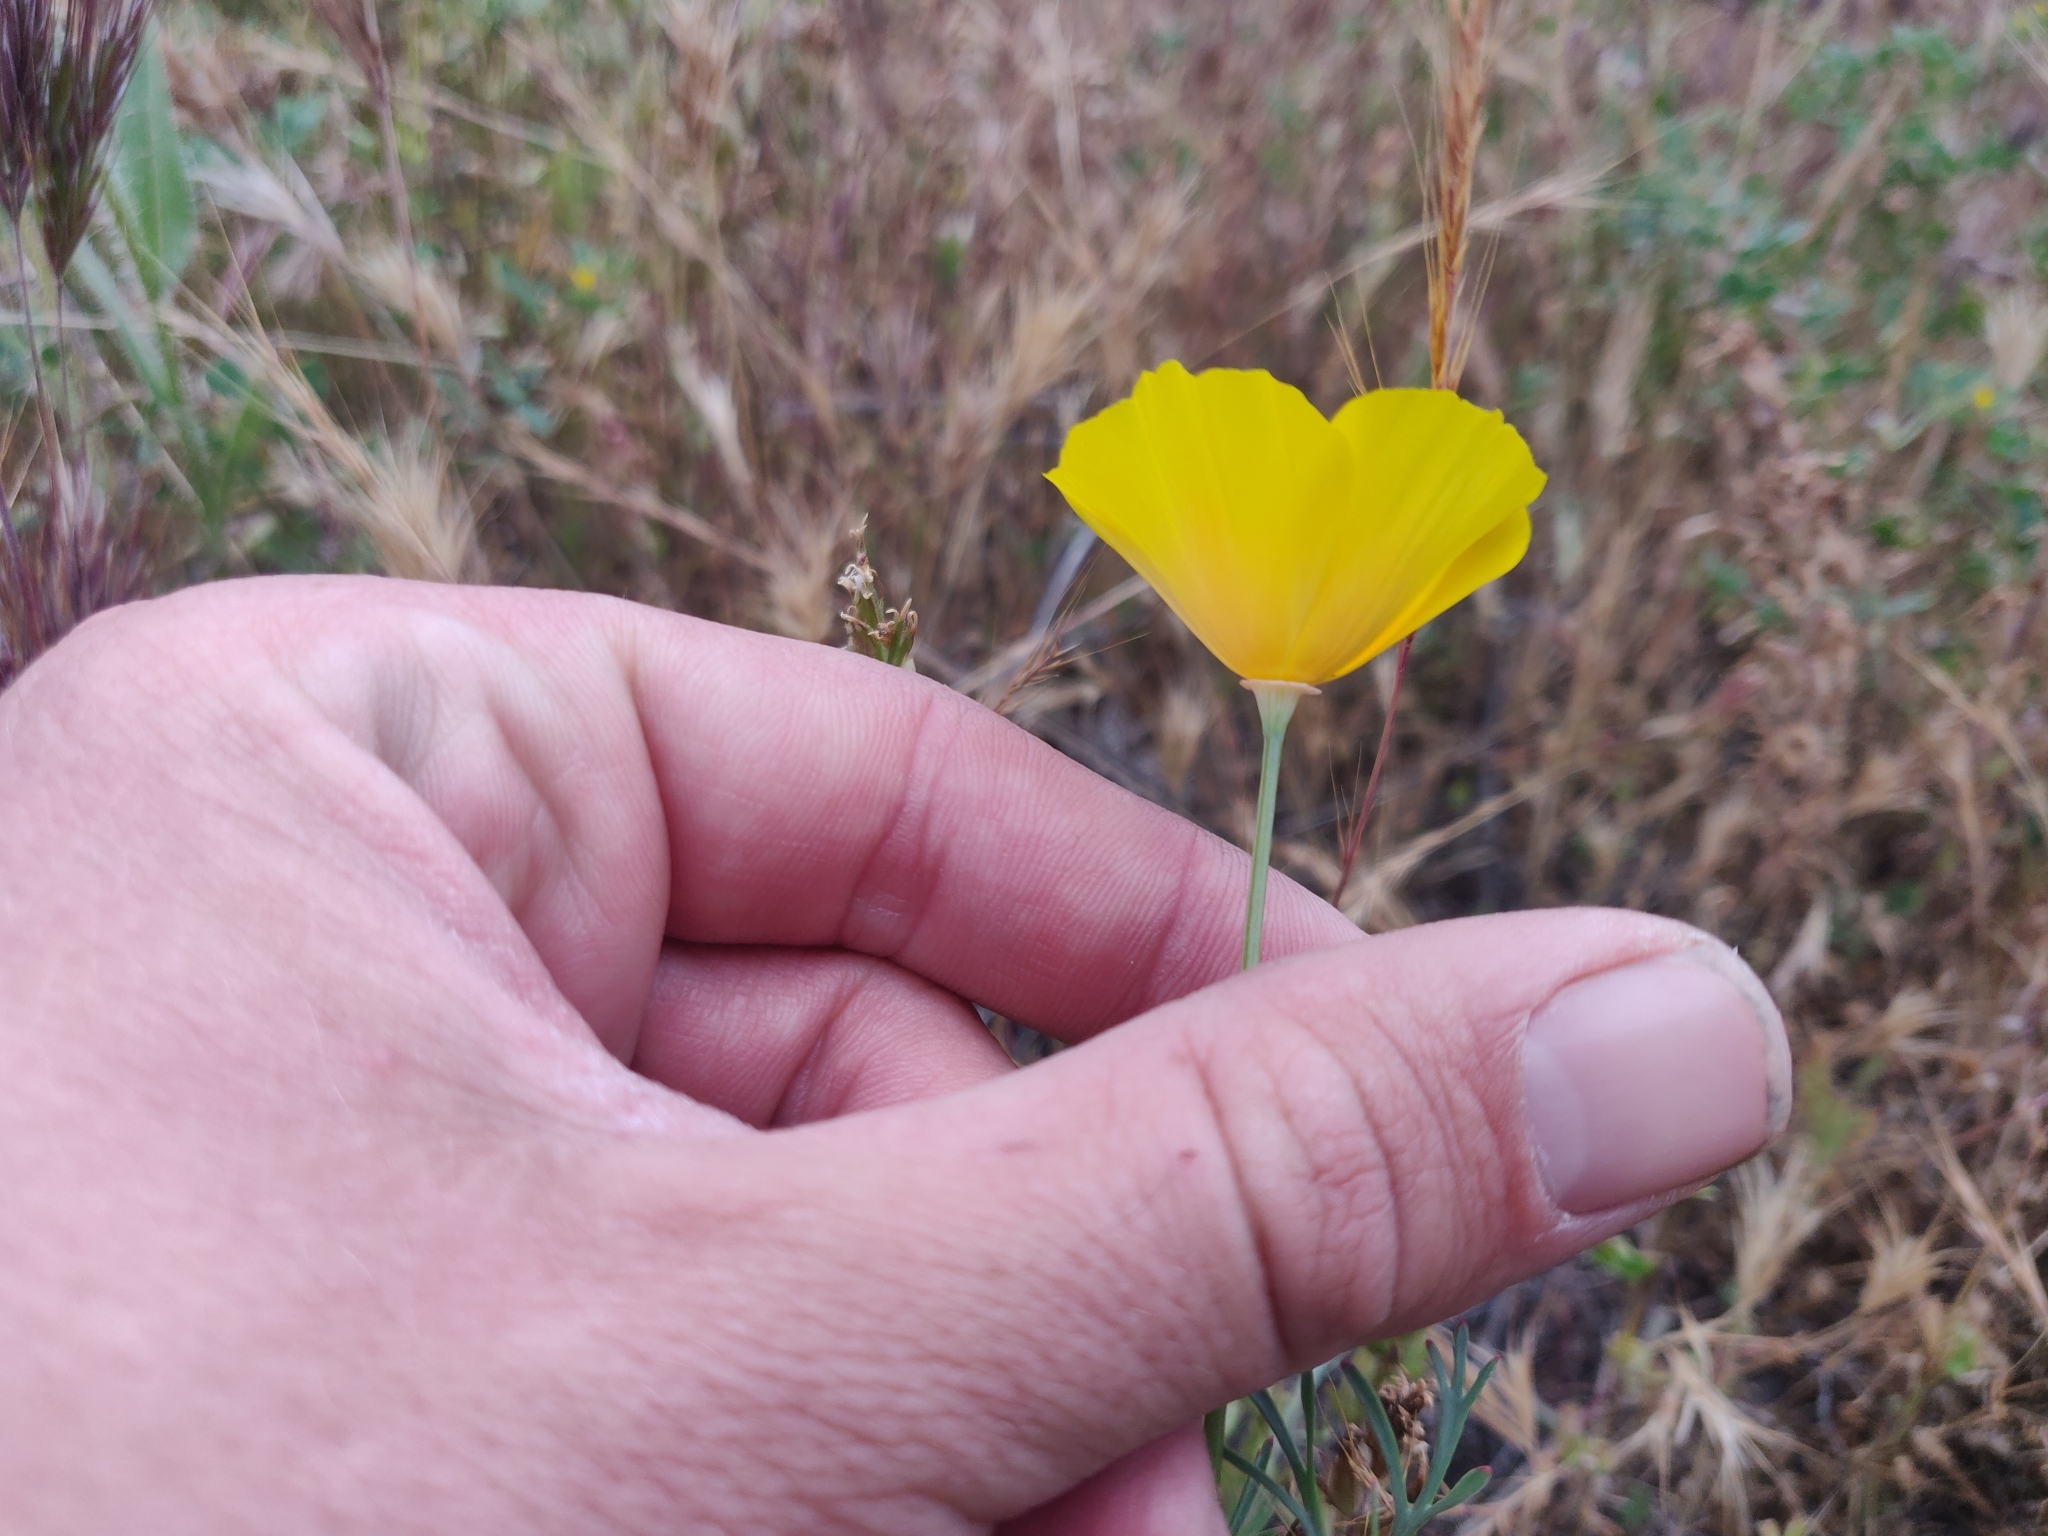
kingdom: Plantae
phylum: Tracheophyta
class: Magnoliopsida
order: Ranunculales
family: Papaveraceae
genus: Eschscholzia
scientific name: Eschscholzia californica
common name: California poppy
